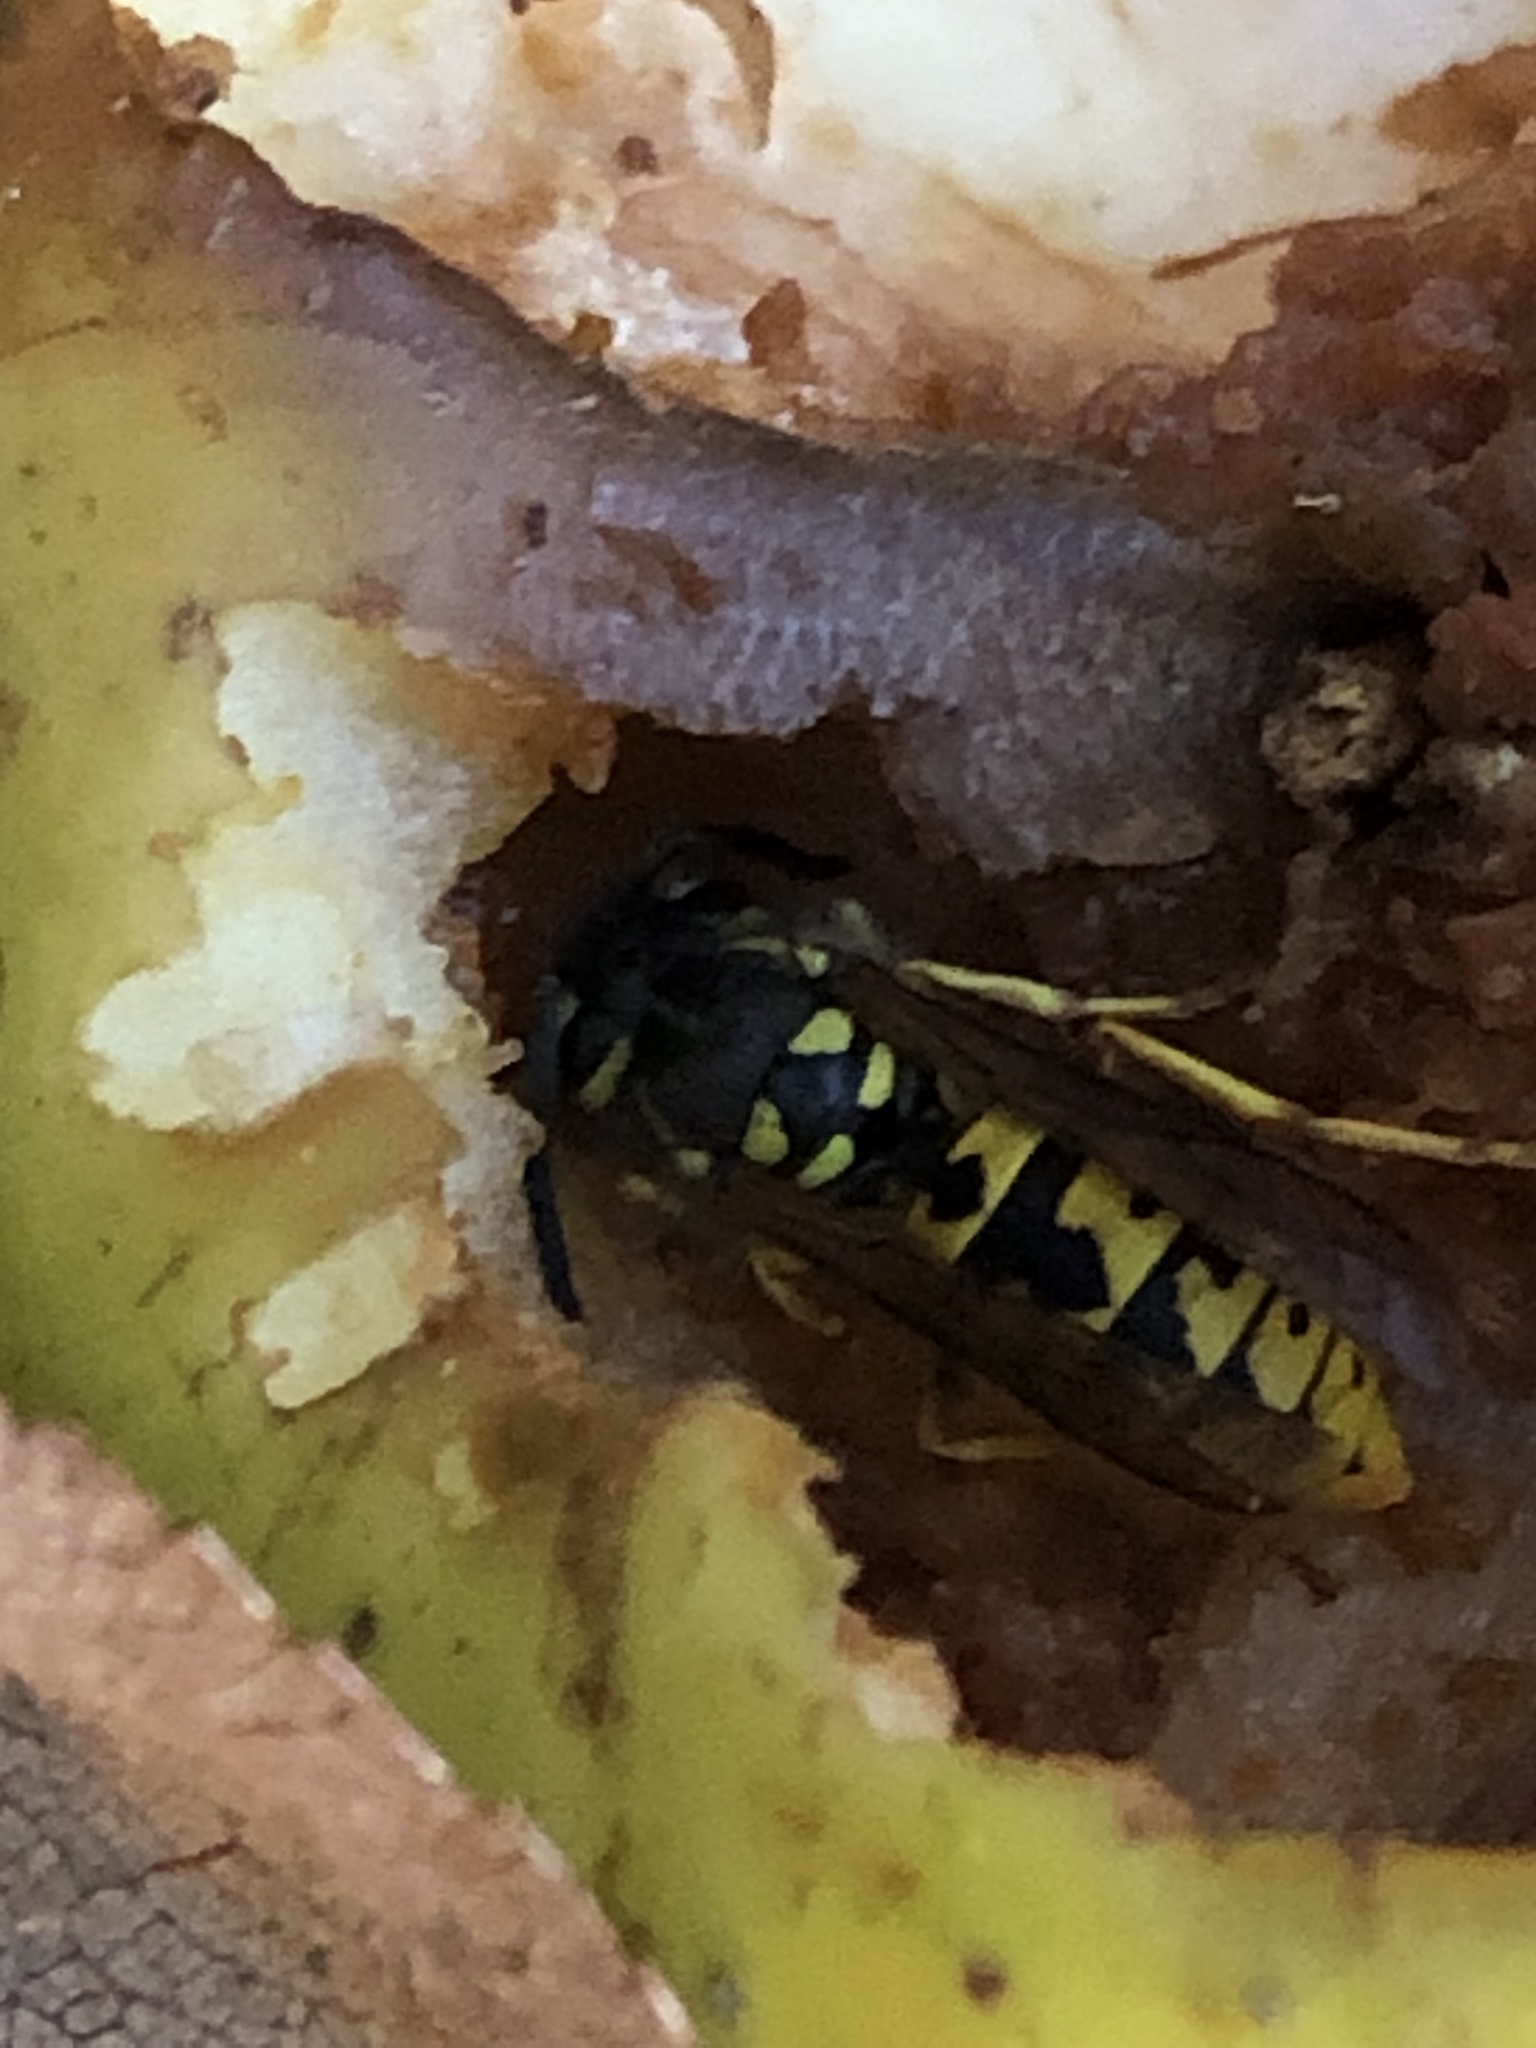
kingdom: Animalia
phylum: Arthropoda
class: Insecta
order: Hymenoptera
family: Vespidae
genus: Vespula
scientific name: Vespula germanica
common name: German wasp
